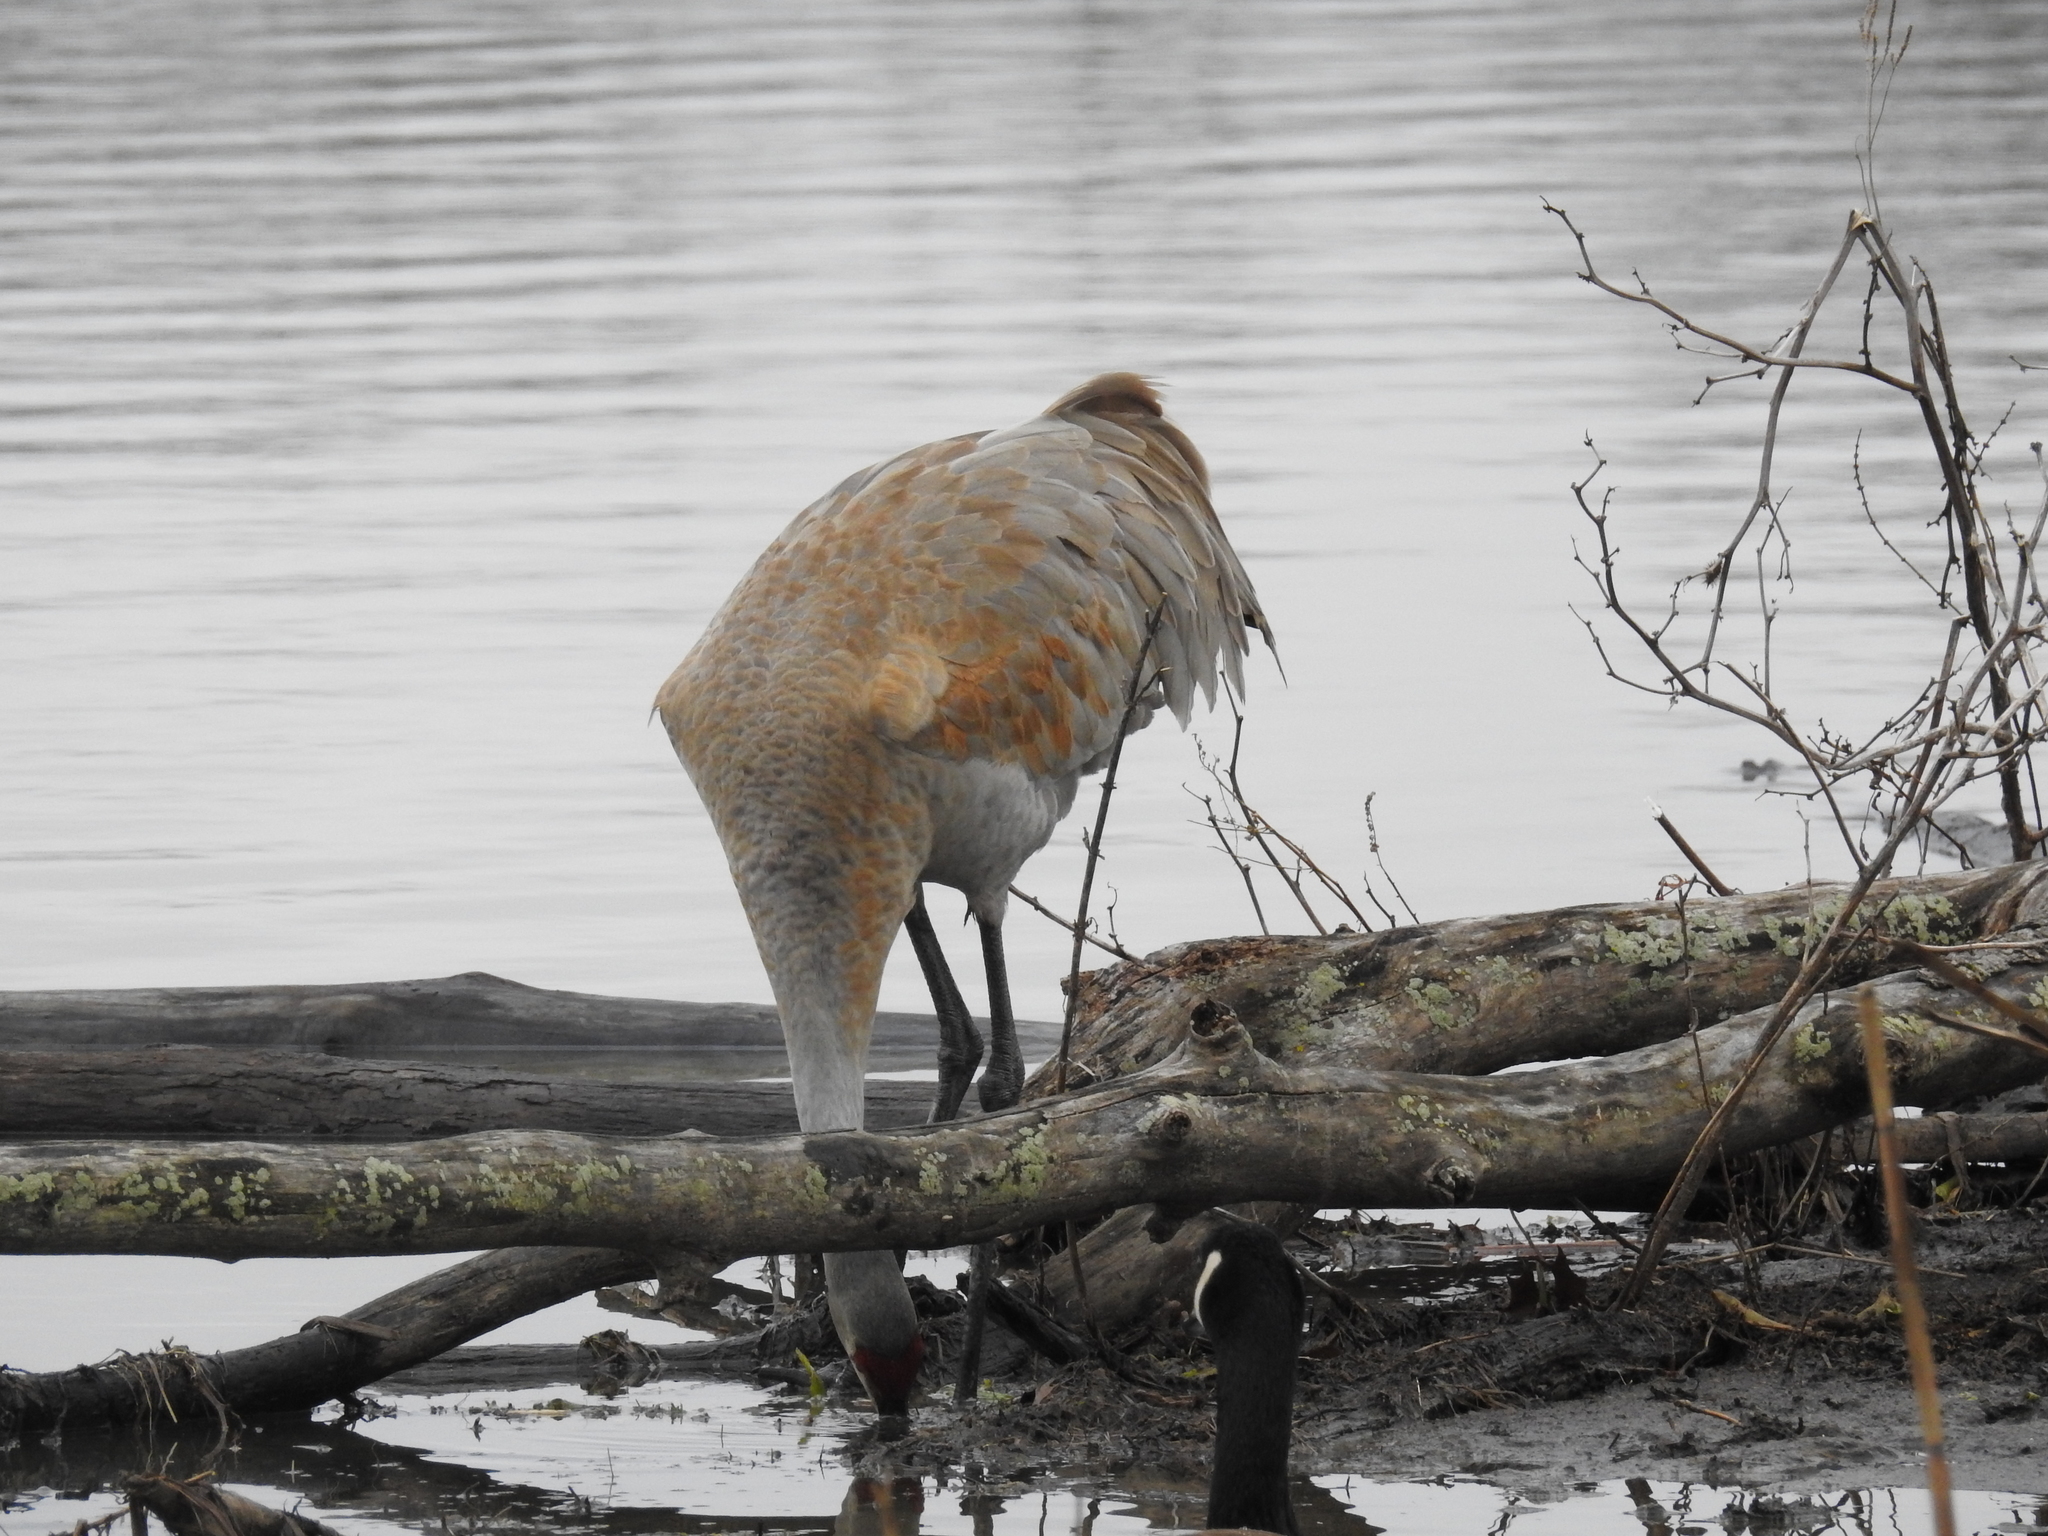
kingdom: Animalia
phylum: Chordata
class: Aves
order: Gruiformes
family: Gruidae
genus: Grus
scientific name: Grus canadensis
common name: Sandhill crane
